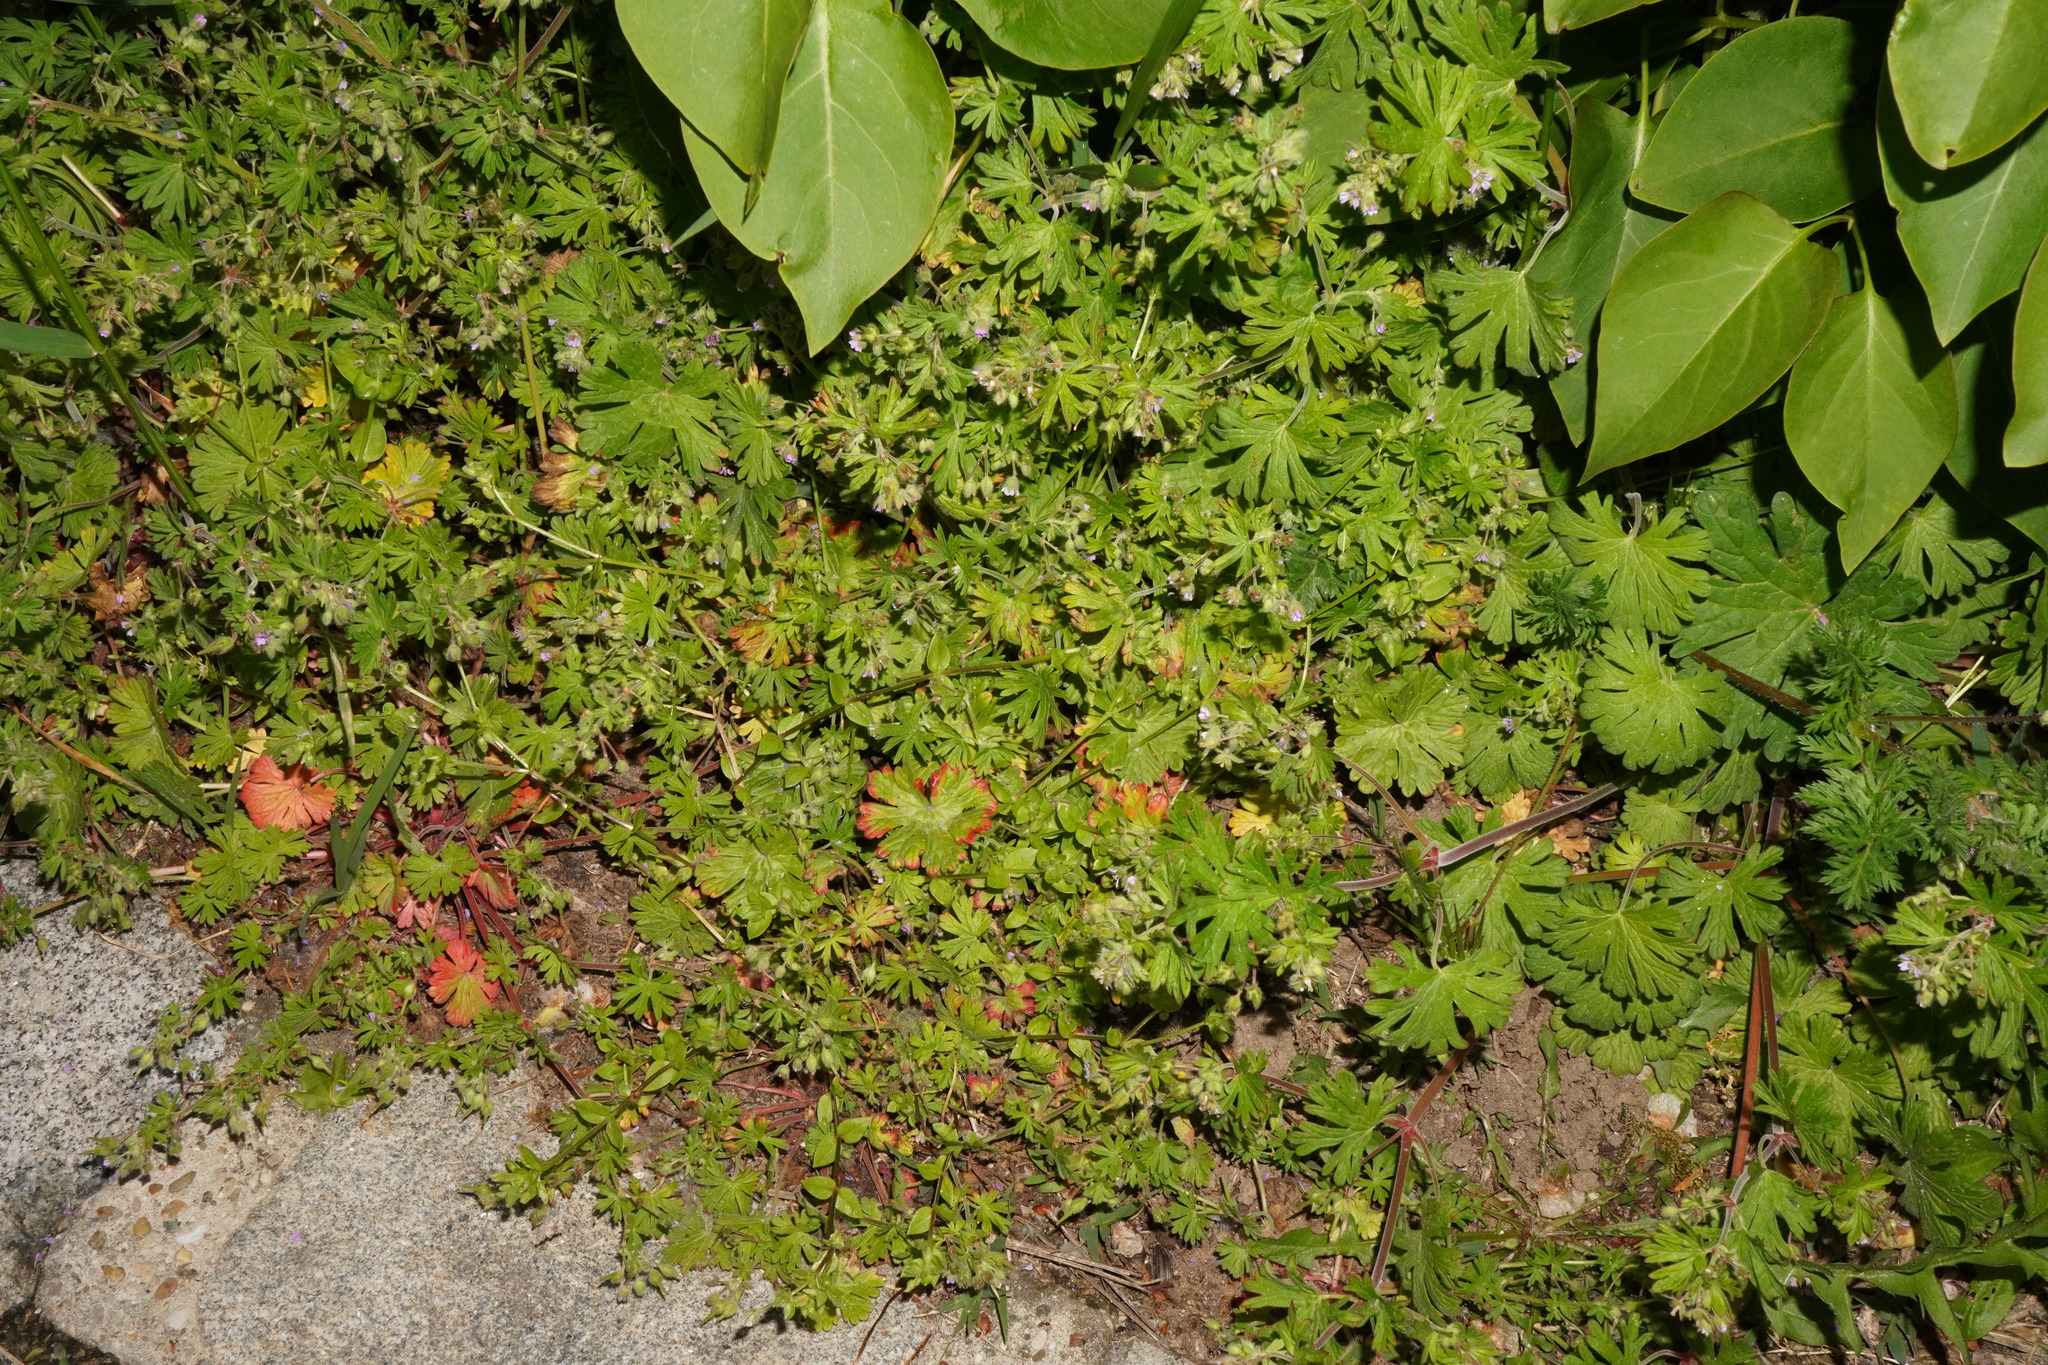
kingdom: Plantae
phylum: Tracheophyta
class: Magnoliopsida
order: Geraniales
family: Geraniaceae
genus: Geranium
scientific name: Geranium pusillum
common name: Small geranium
